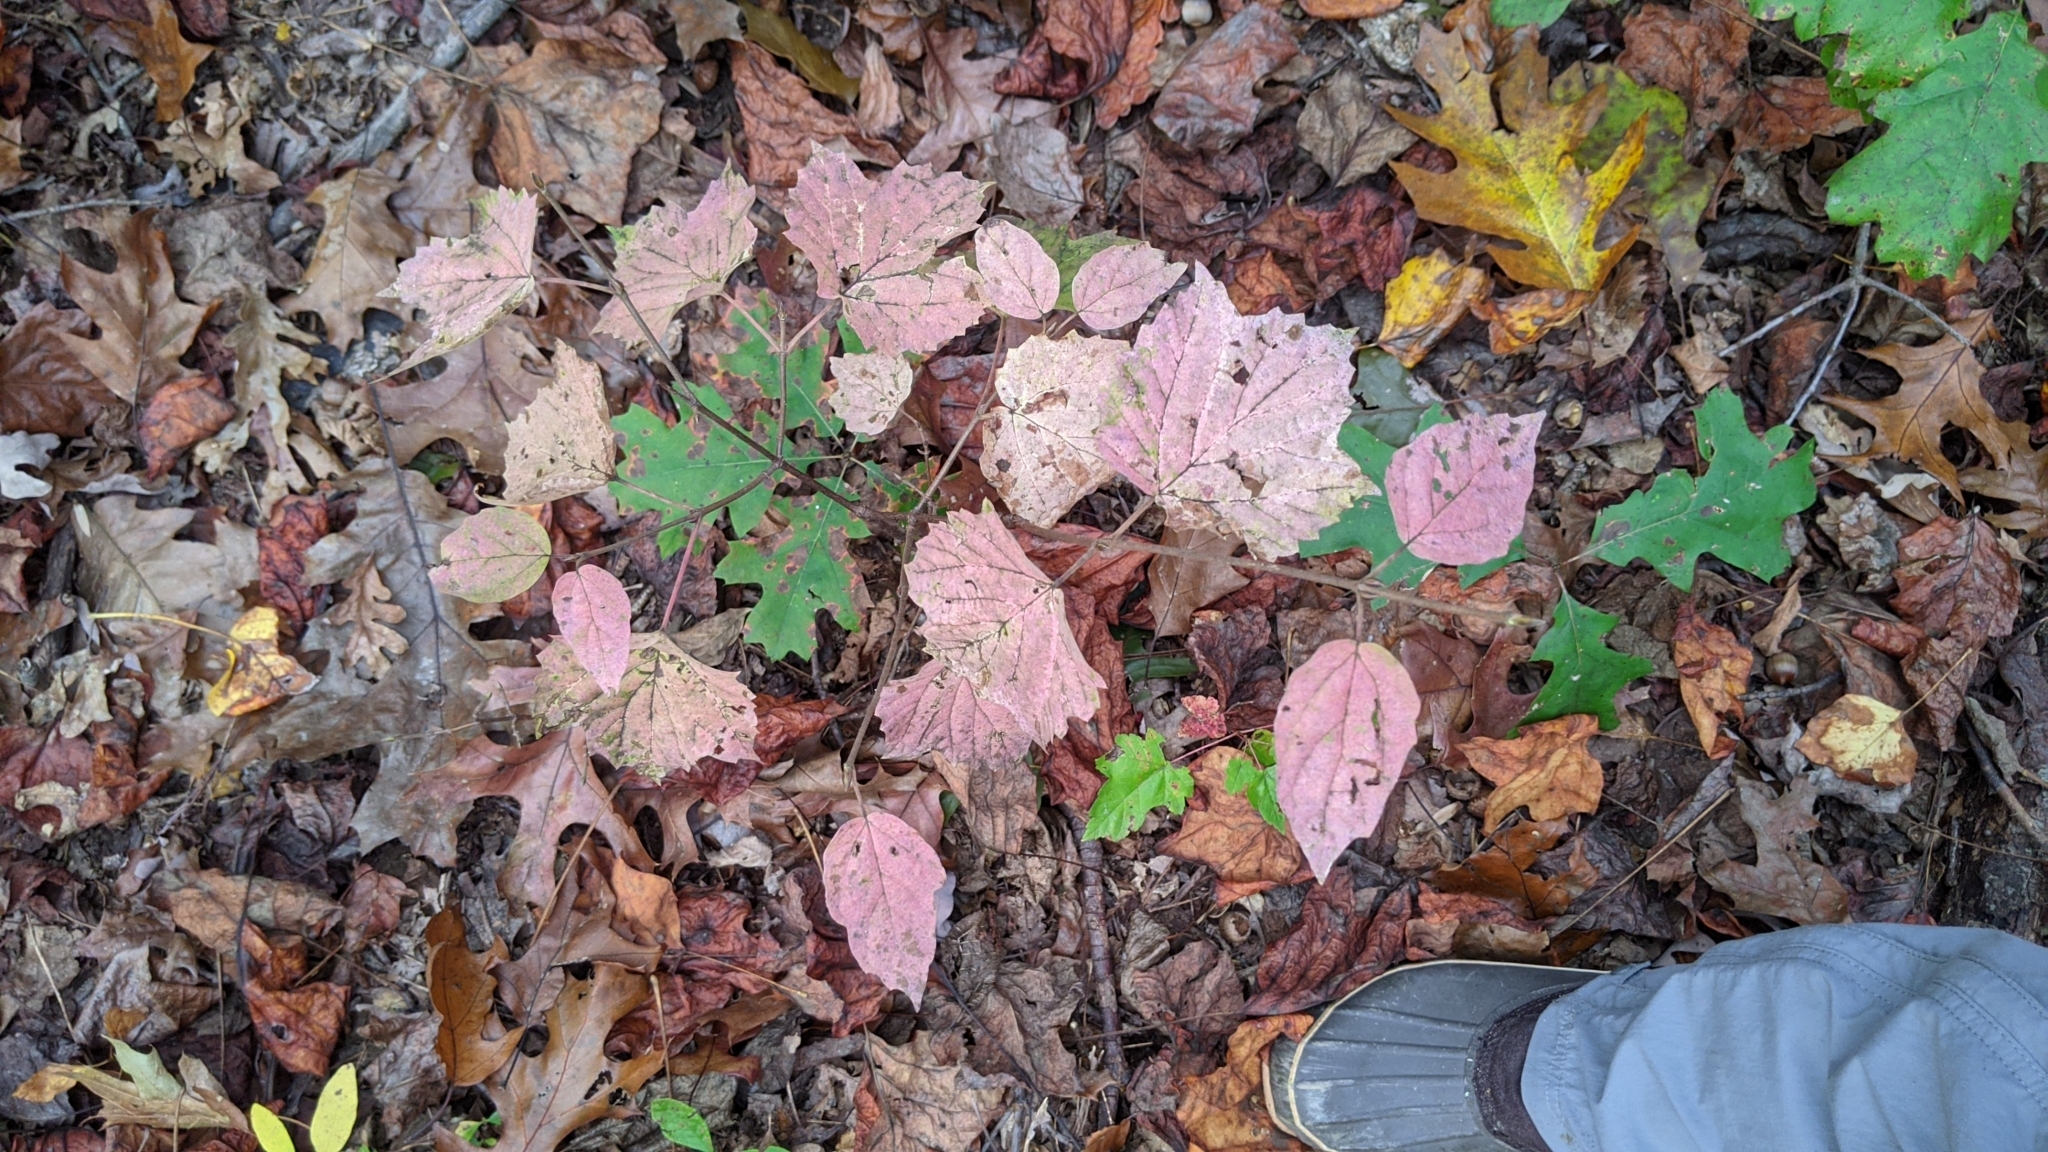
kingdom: Plantae
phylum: Tracheophyta
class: Magnoliopsida
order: Dipsacales
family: Viburnaceae
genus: Viburnum
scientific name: Viburnum acerifolium
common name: Dockmackie
